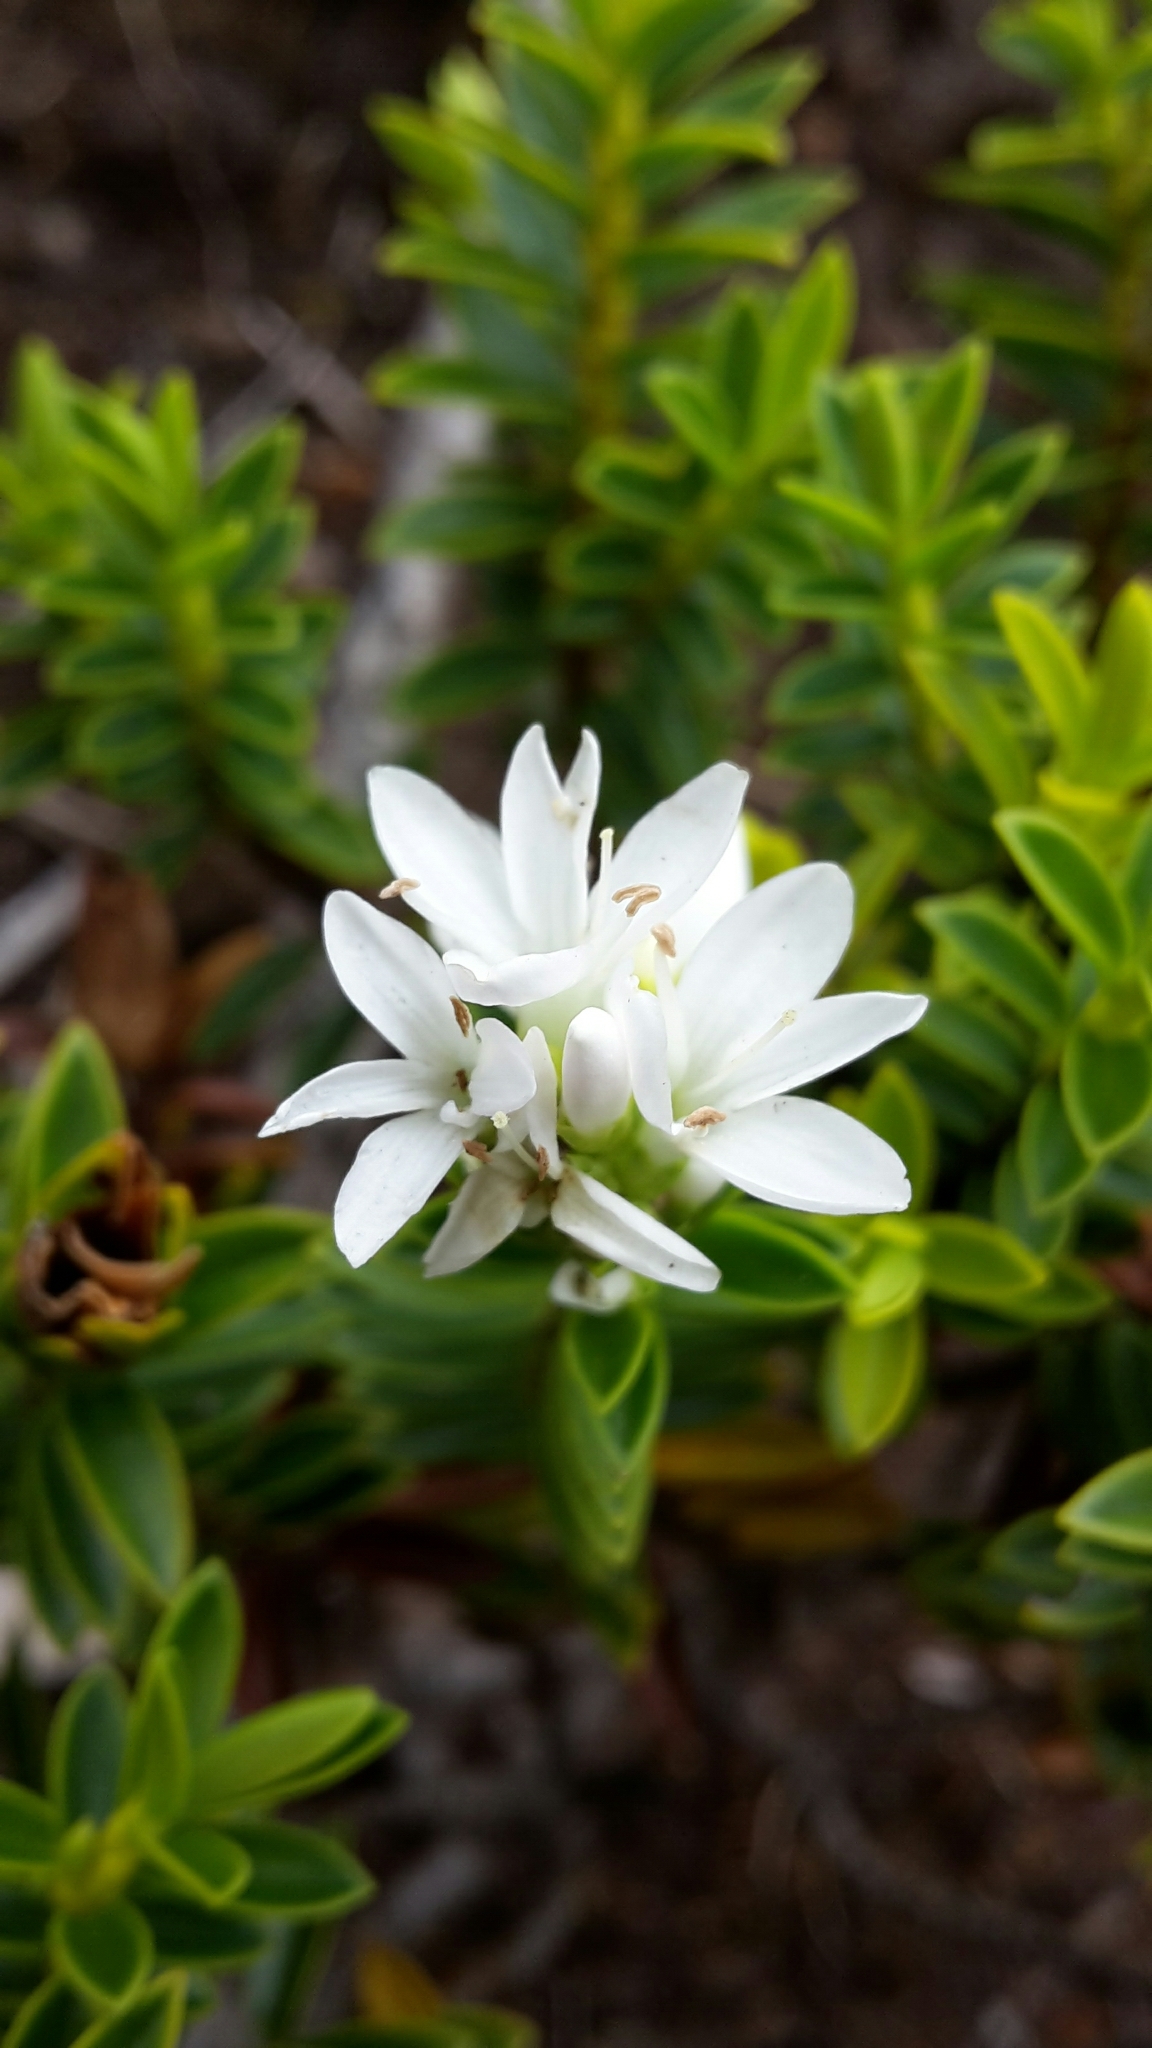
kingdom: Plantae
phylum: Tracheophyta
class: Magnoliopsida
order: Lamiales
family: Plantaginaceae
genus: Veronica
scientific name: Veronica odora
